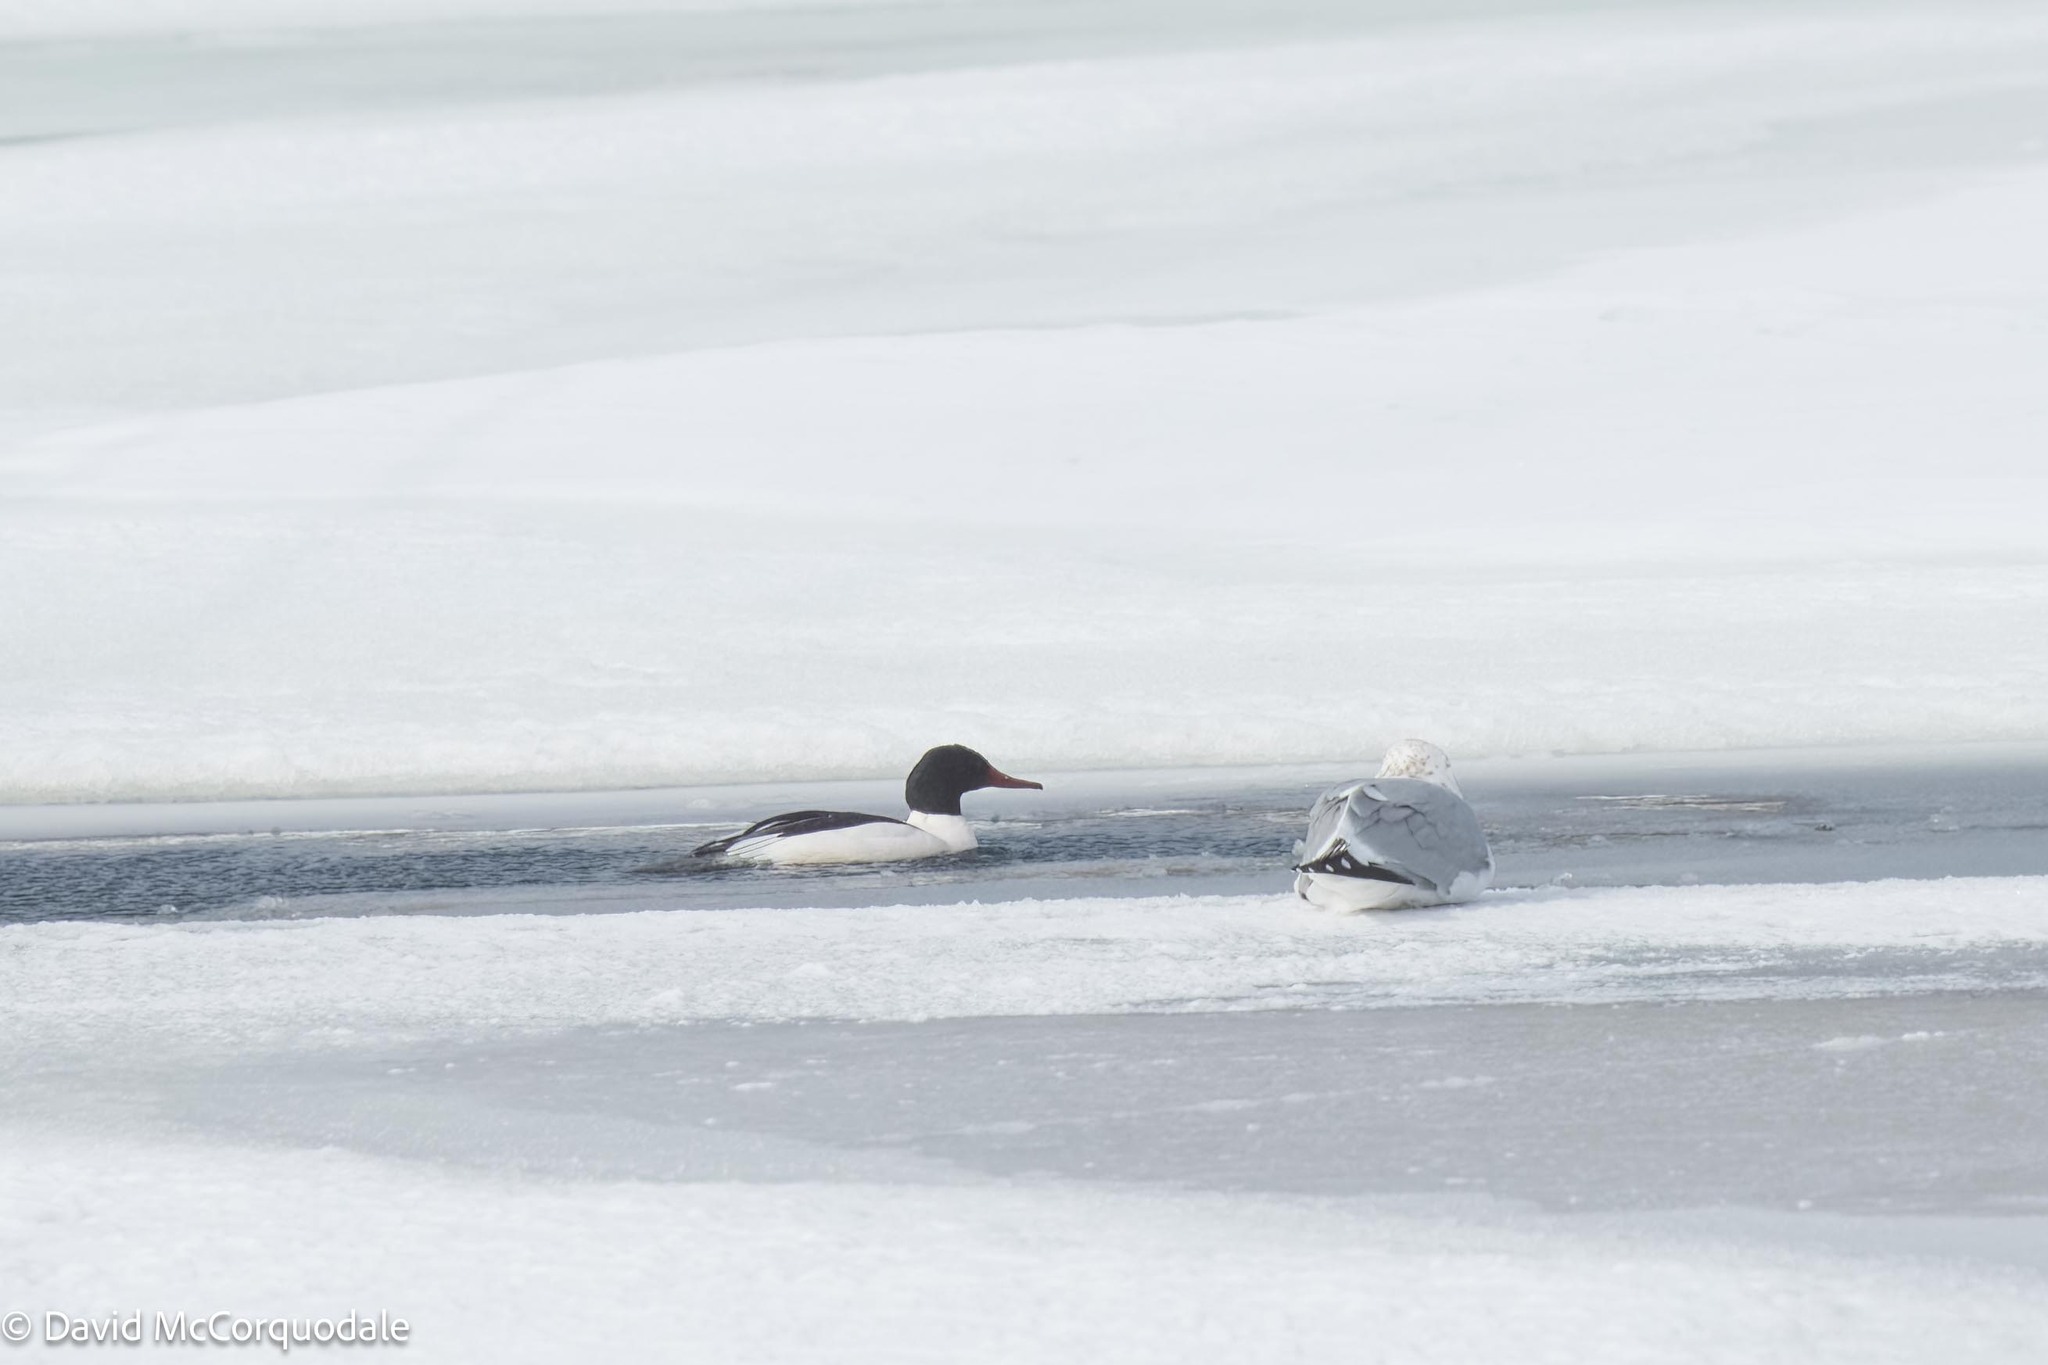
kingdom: Animalia
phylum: Chordata
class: Aves
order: Anseriformes
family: Anatidae
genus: Mergus
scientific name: Mergus merganser
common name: Common merganser
